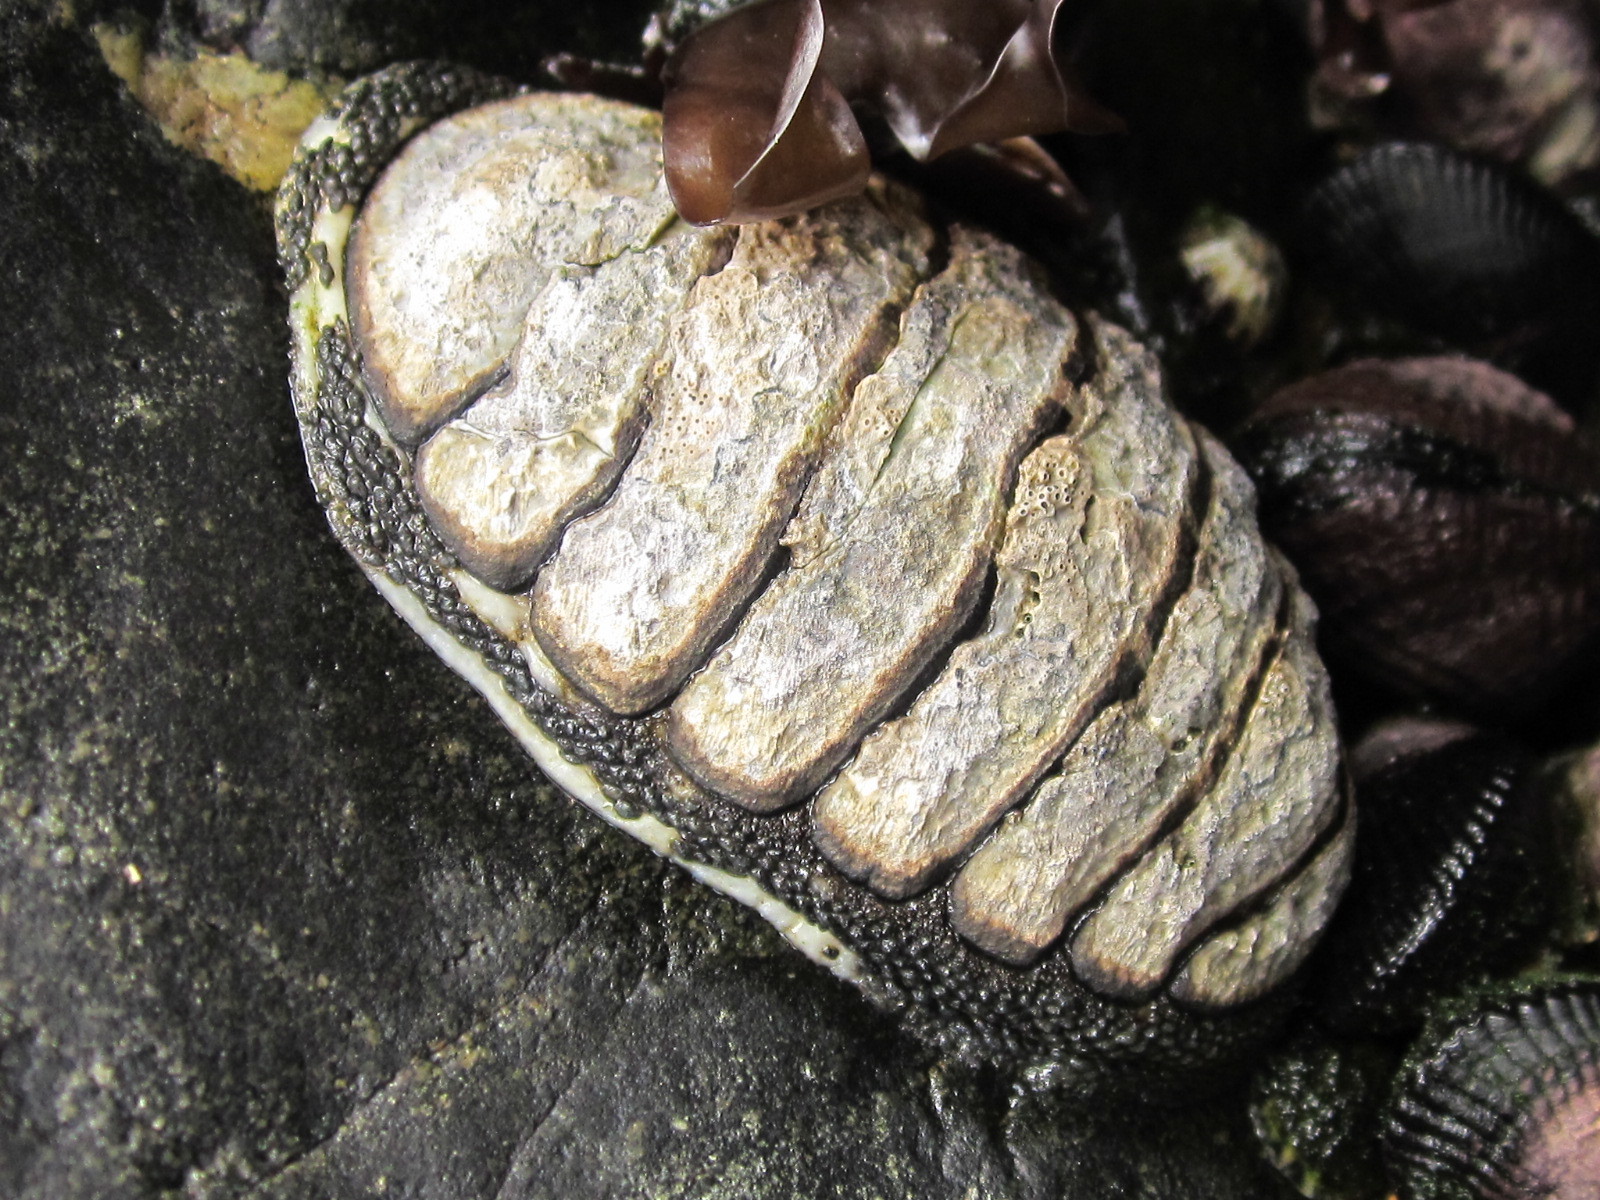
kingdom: Animalia
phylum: Mollusca
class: Polyplacophora
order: Chitonida
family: Chitonidae
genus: Chiton
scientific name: Chiton granosus
